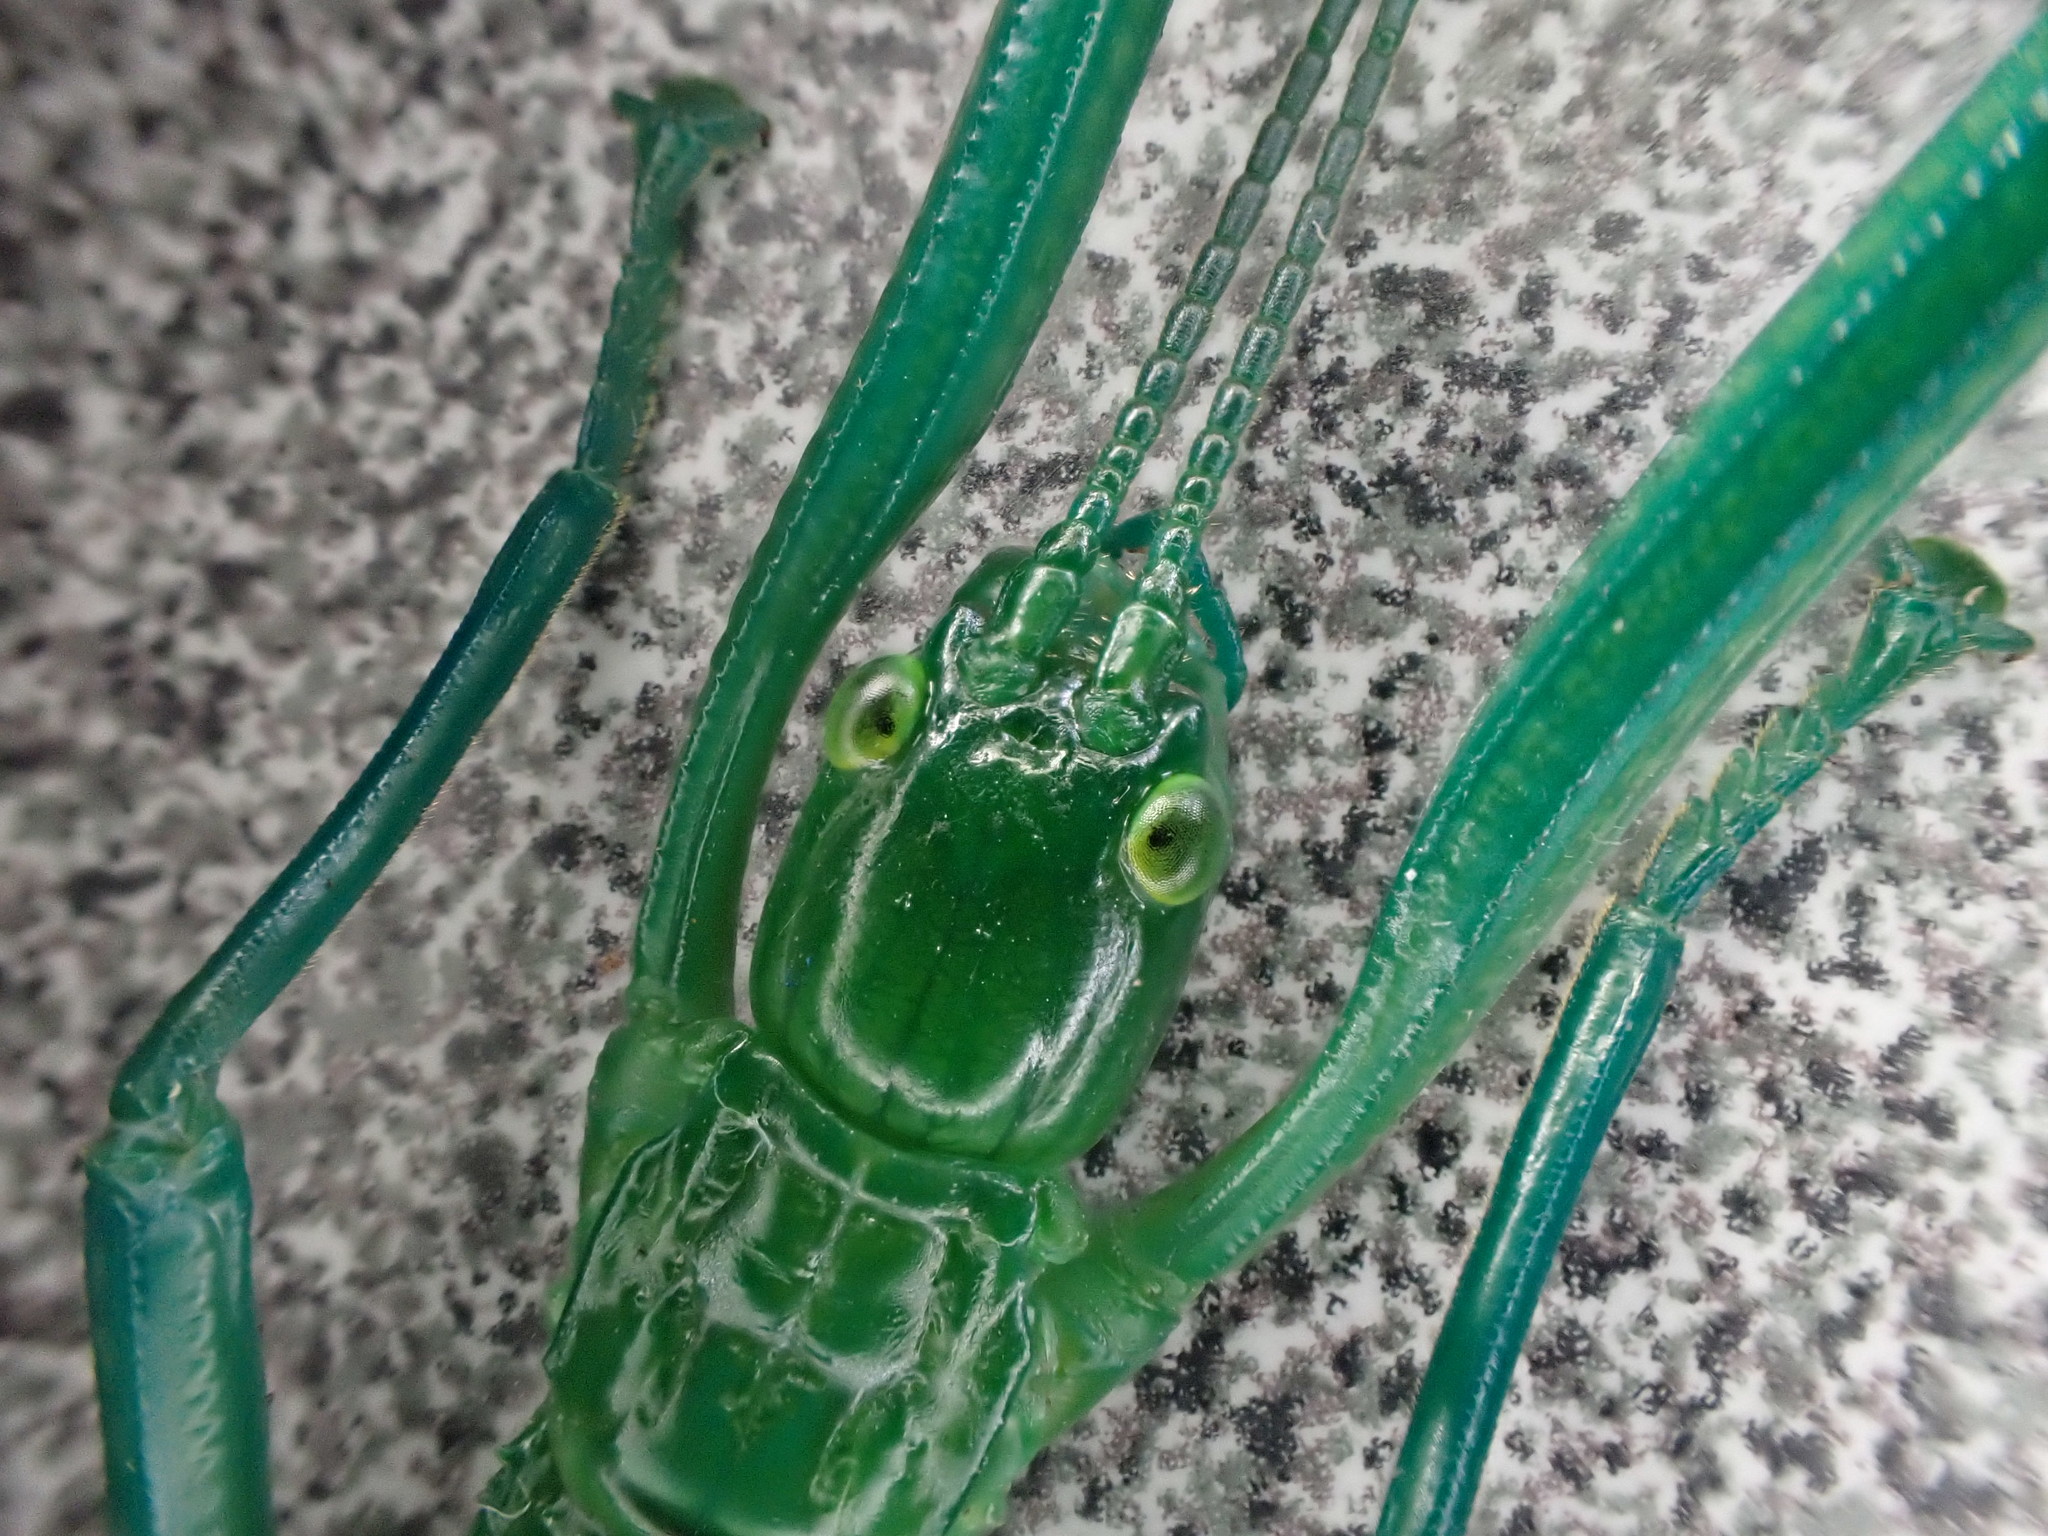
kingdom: Animalia
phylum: Arthropoda
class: Insecta
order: Phasmida
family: Phasmatidae
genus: Megacrania
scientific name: Megacrania batesii
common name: Peppermint stick-insect
